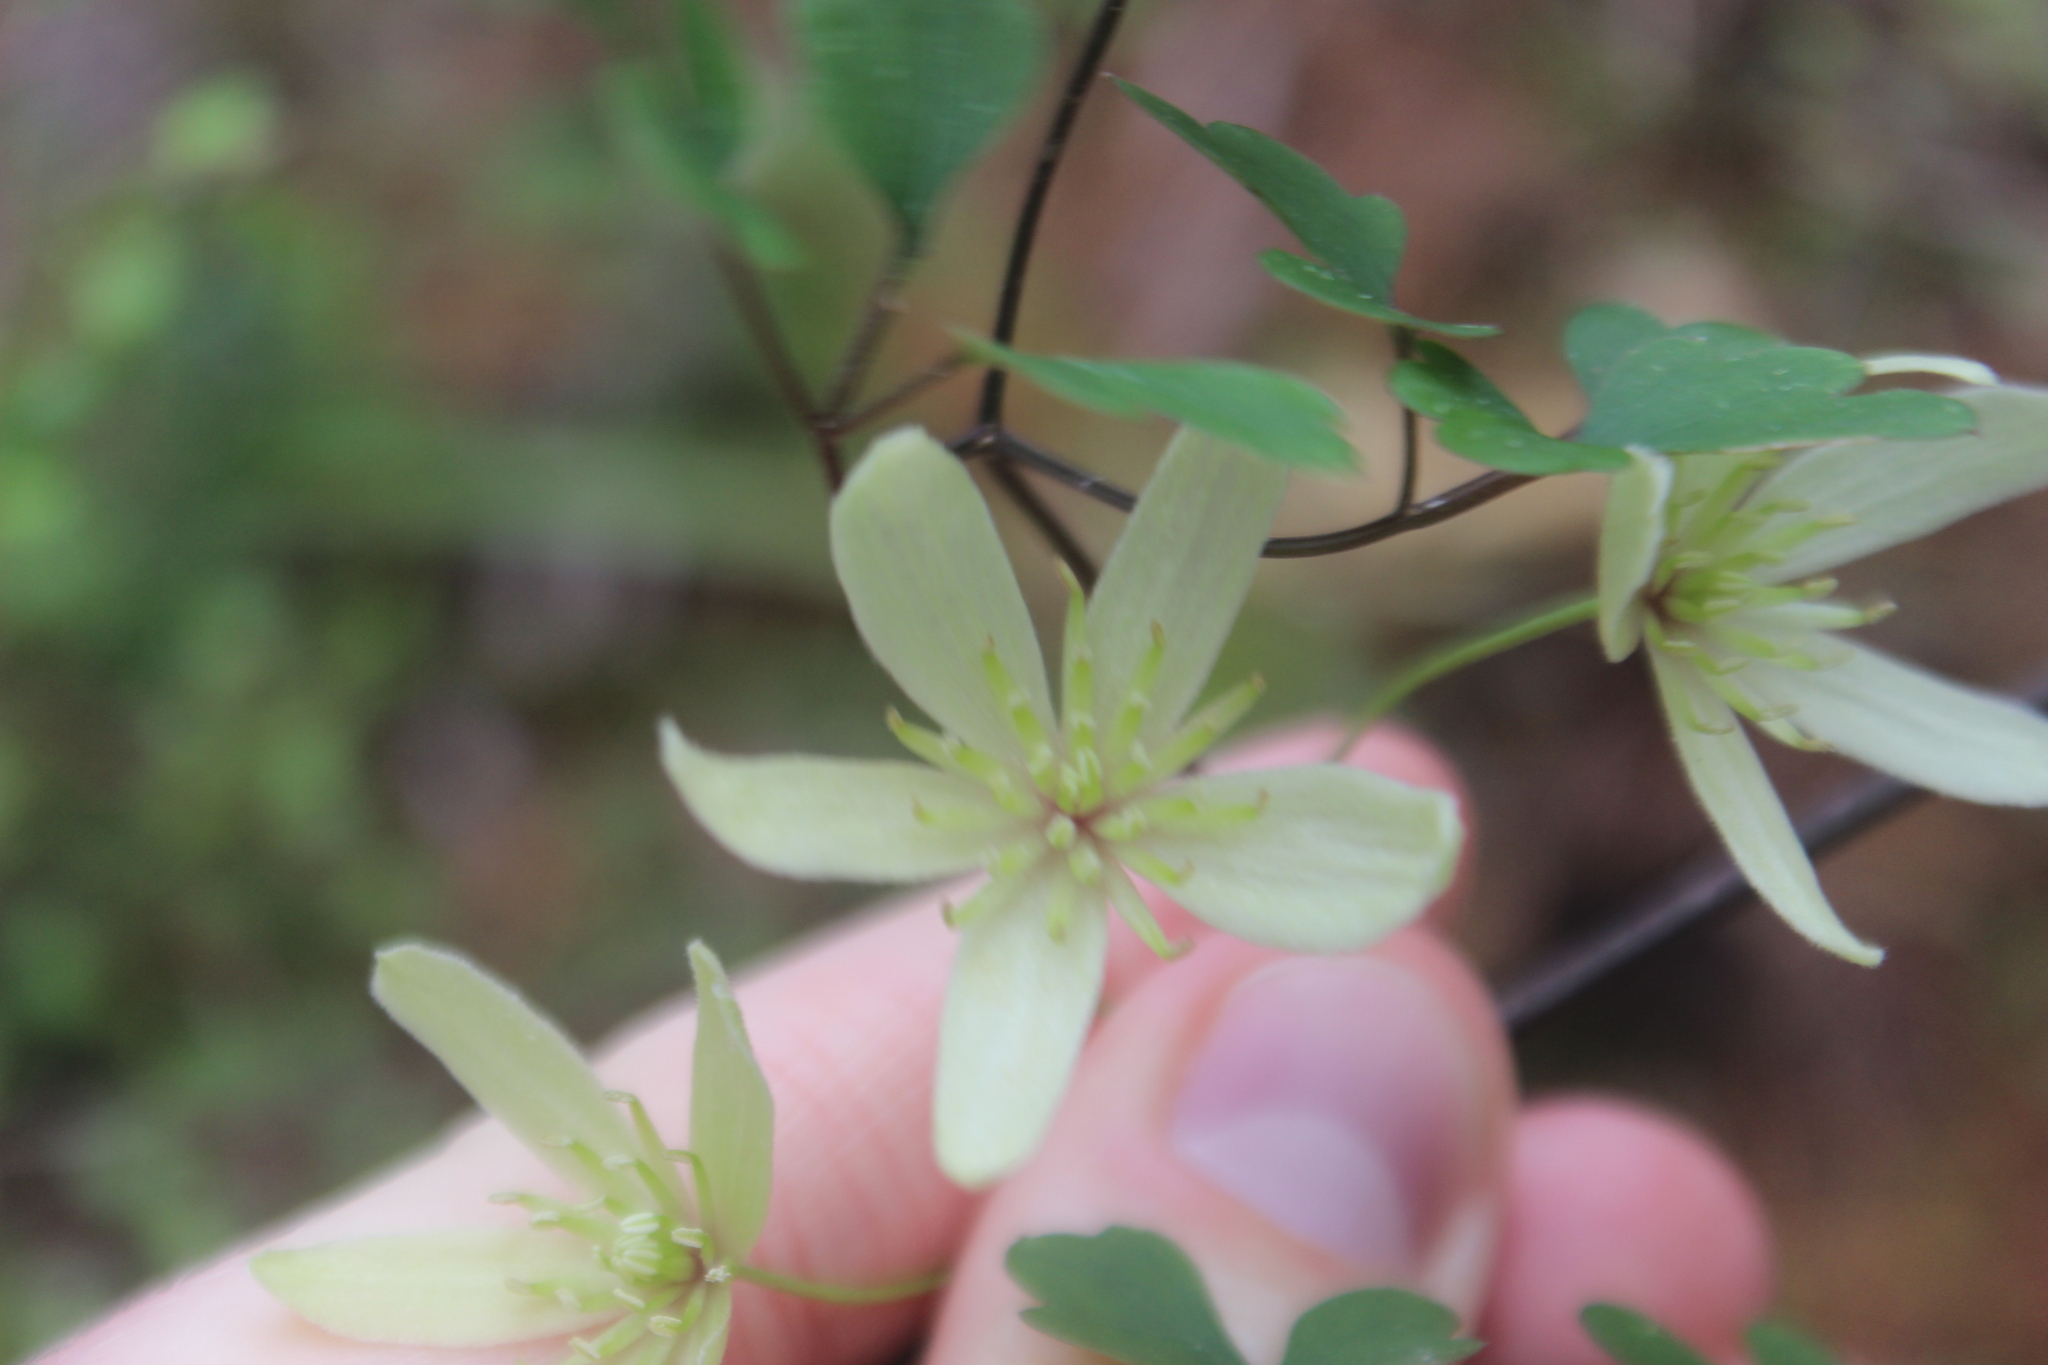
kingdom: Plantae
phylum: Tracheophyta
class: Magnoliopsida
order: Ranunculales
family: Ranunculaceae
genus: Clematis
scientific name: Clematis forsteri
